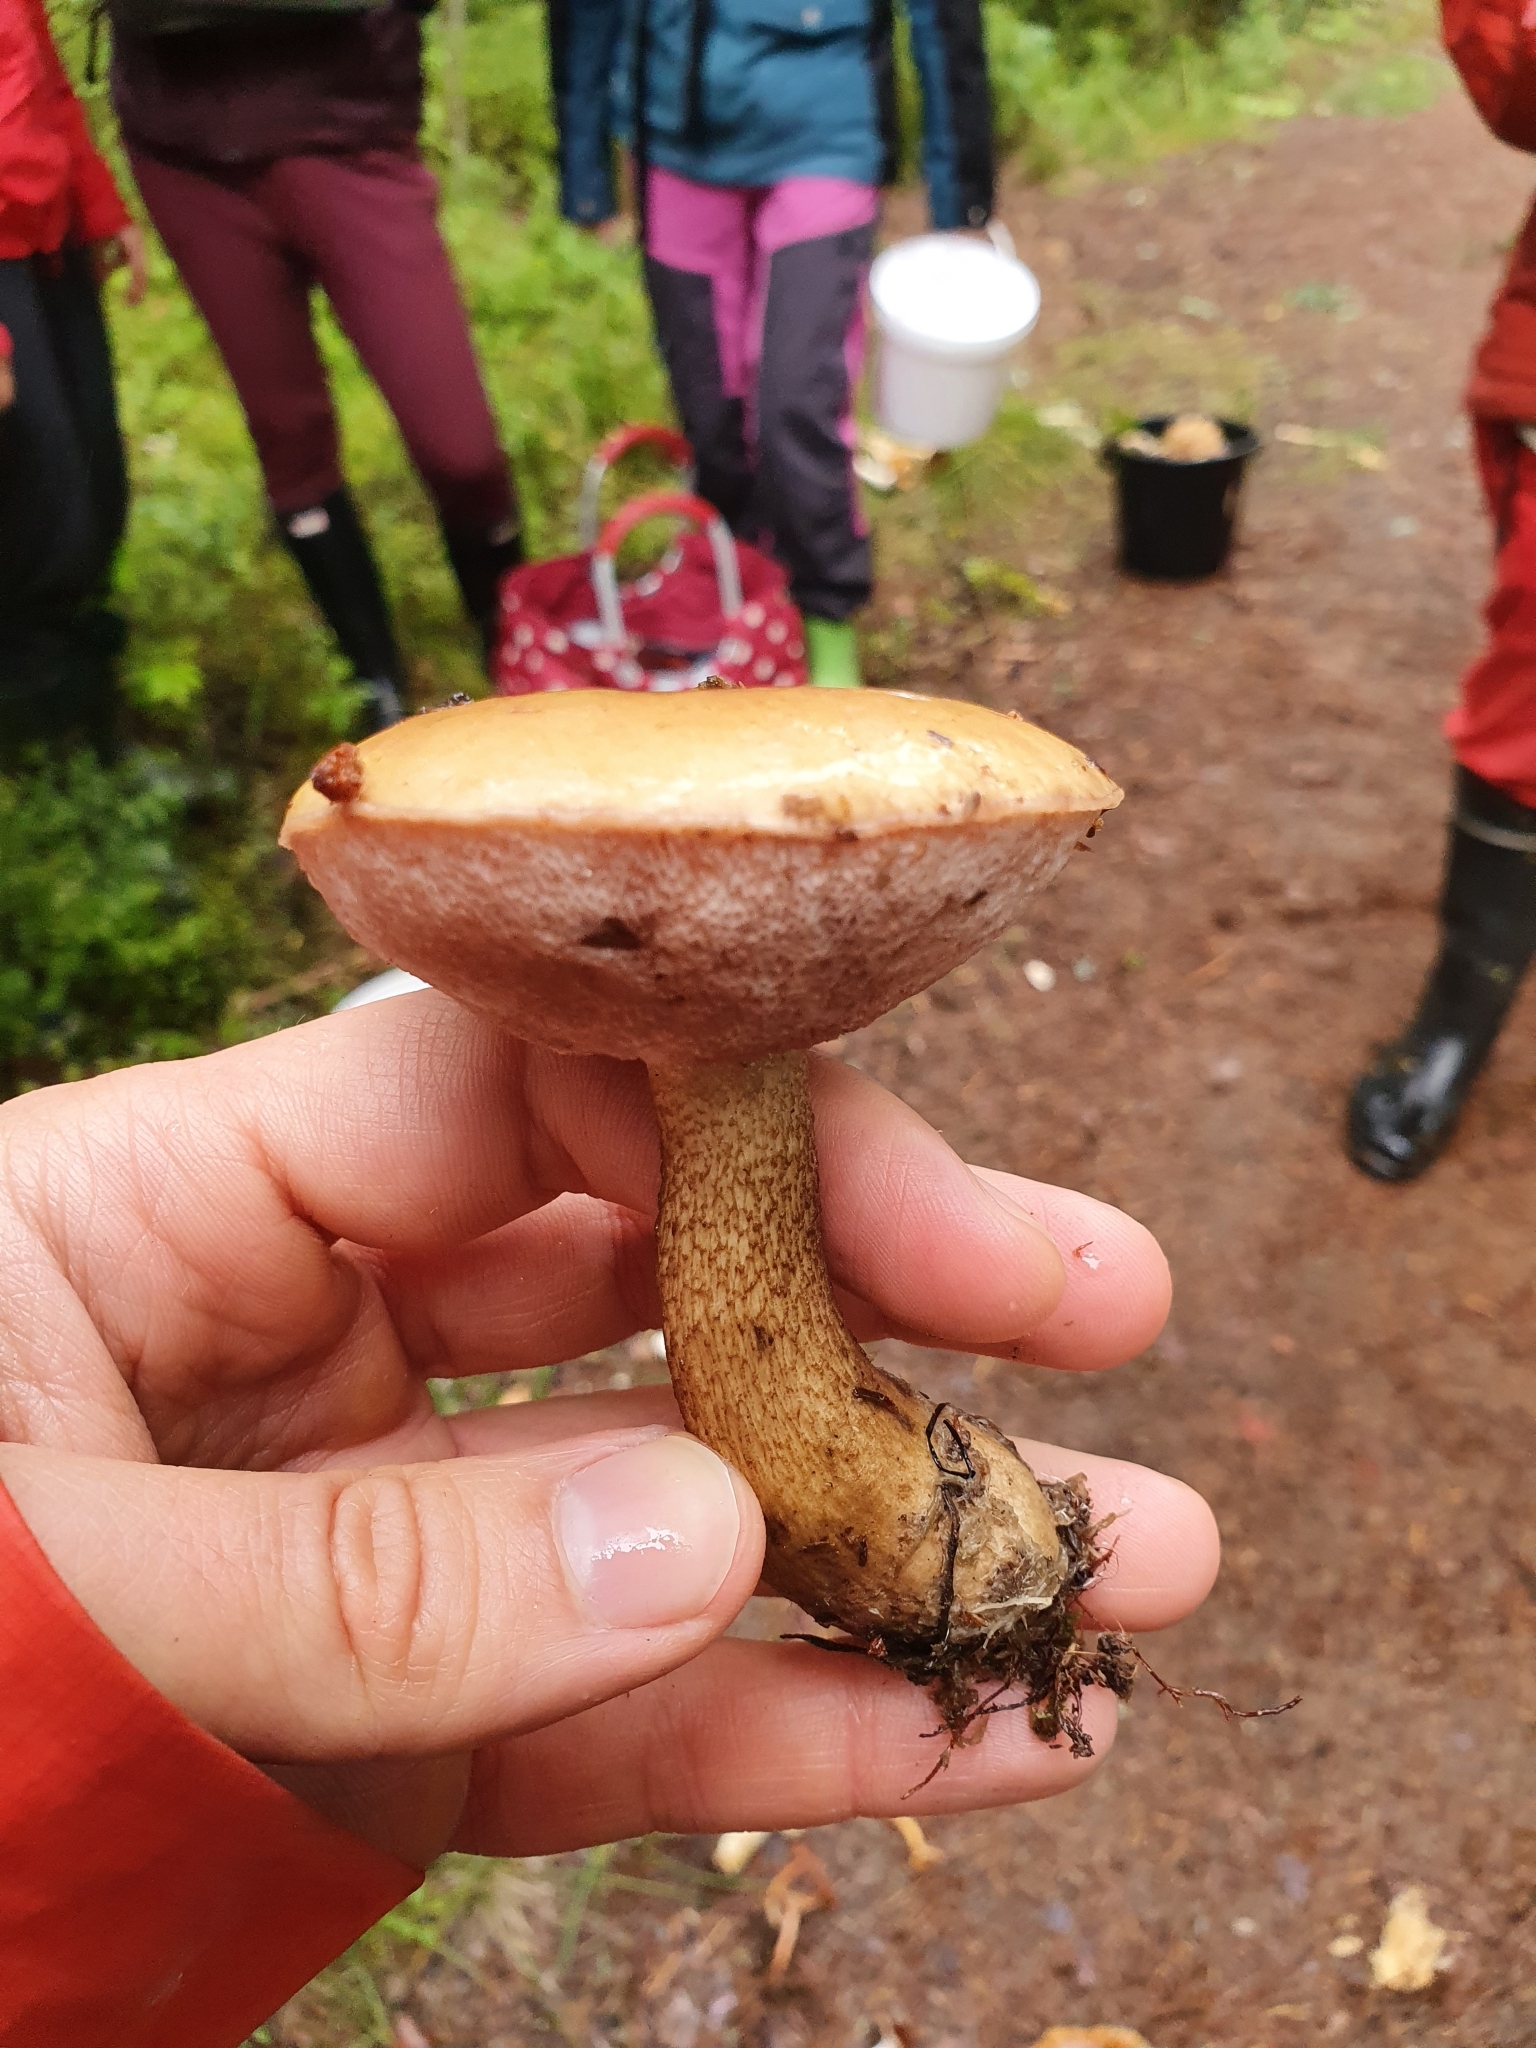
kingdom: Fungi
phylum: Basidiomycota
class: Agaricomycetes
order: Boletales
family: Boletaceae
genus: Tylopilus
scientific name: Tylopilus felleus
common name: Bitter bolete
